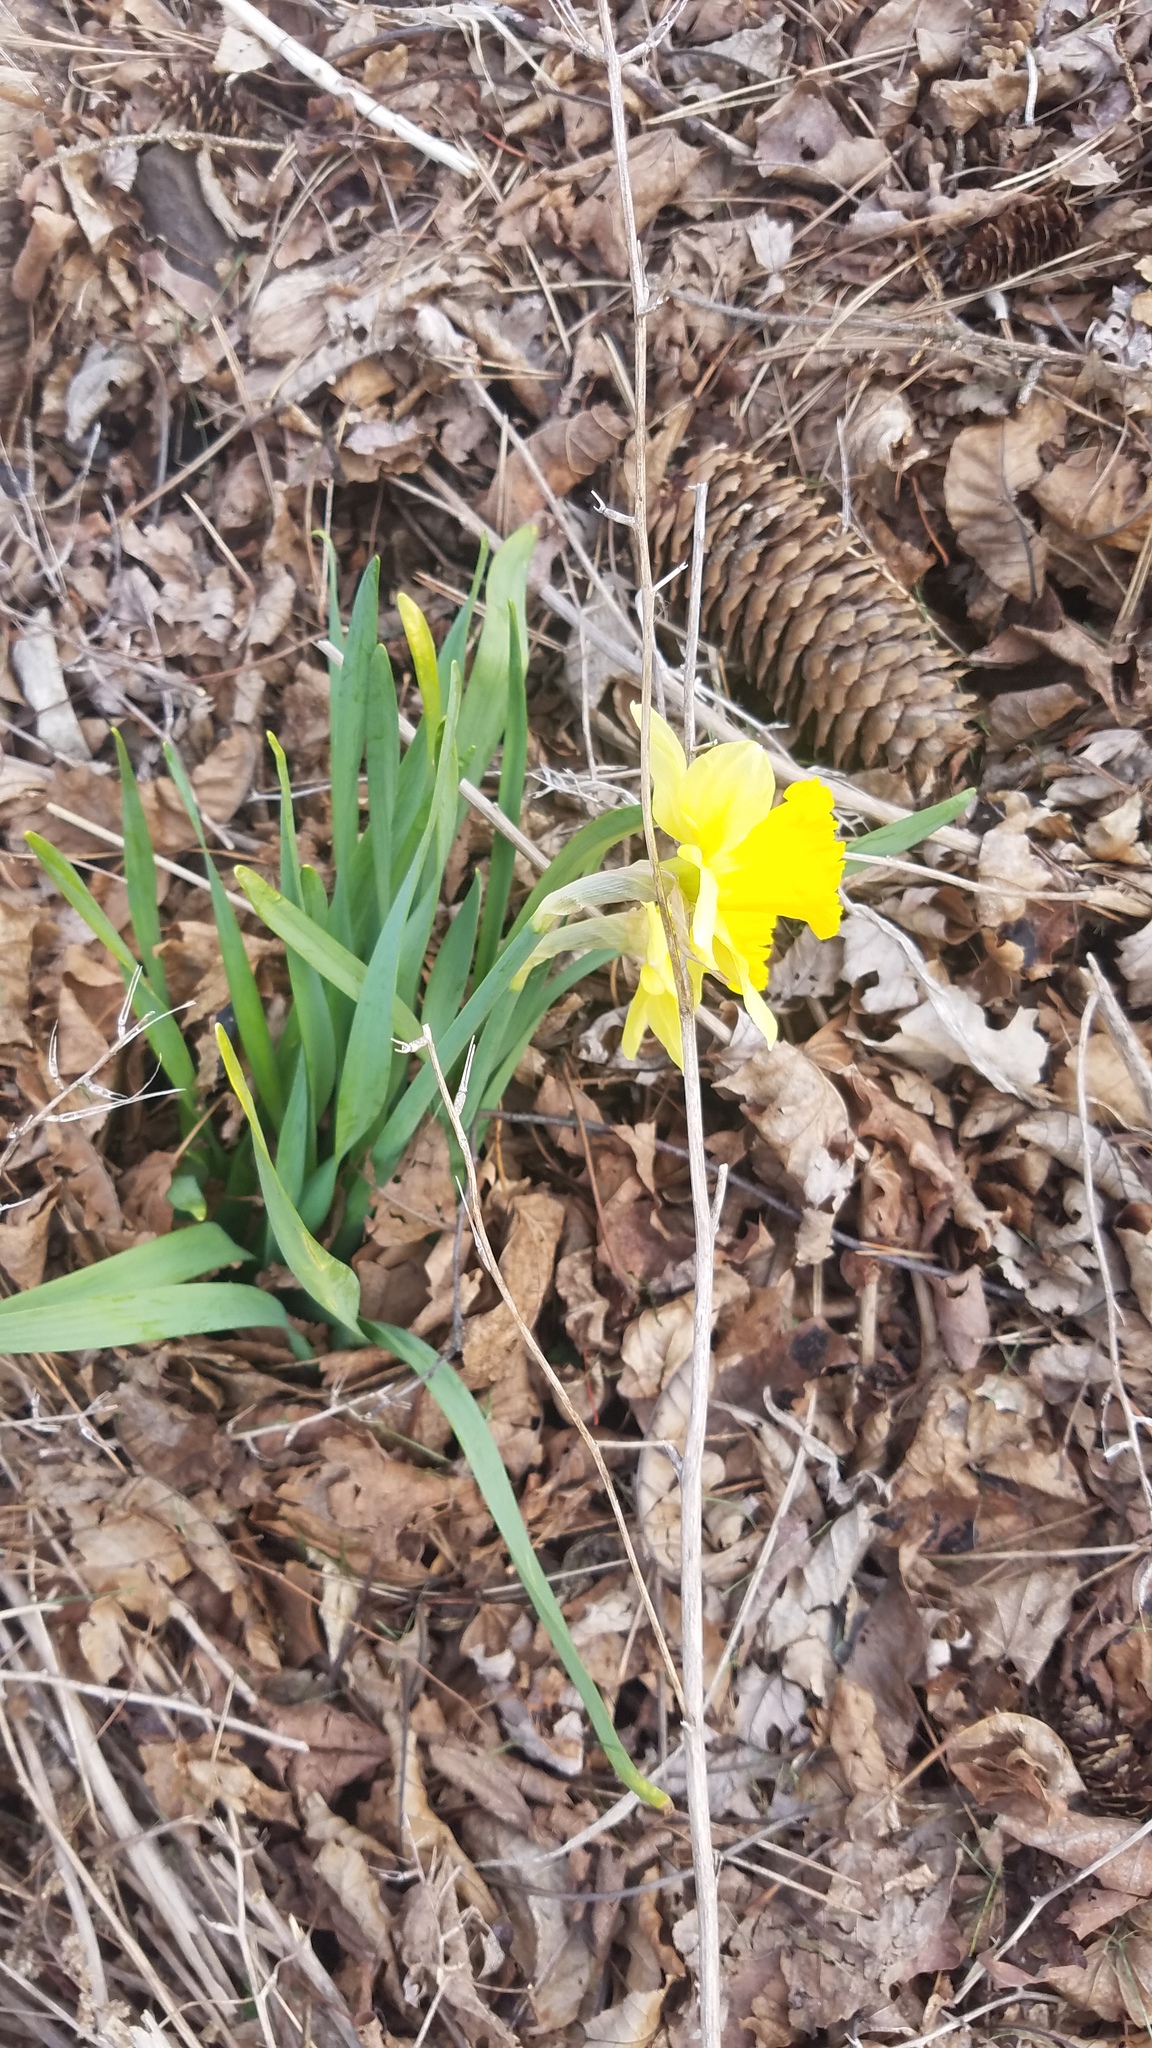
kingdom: Plantae
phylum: Tracheophyta
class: Liliopsida
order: Asparagales
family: Amaryllidaceae
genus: Narcissus
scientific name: Narcissus pseudonarcissus
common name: Daffodil
